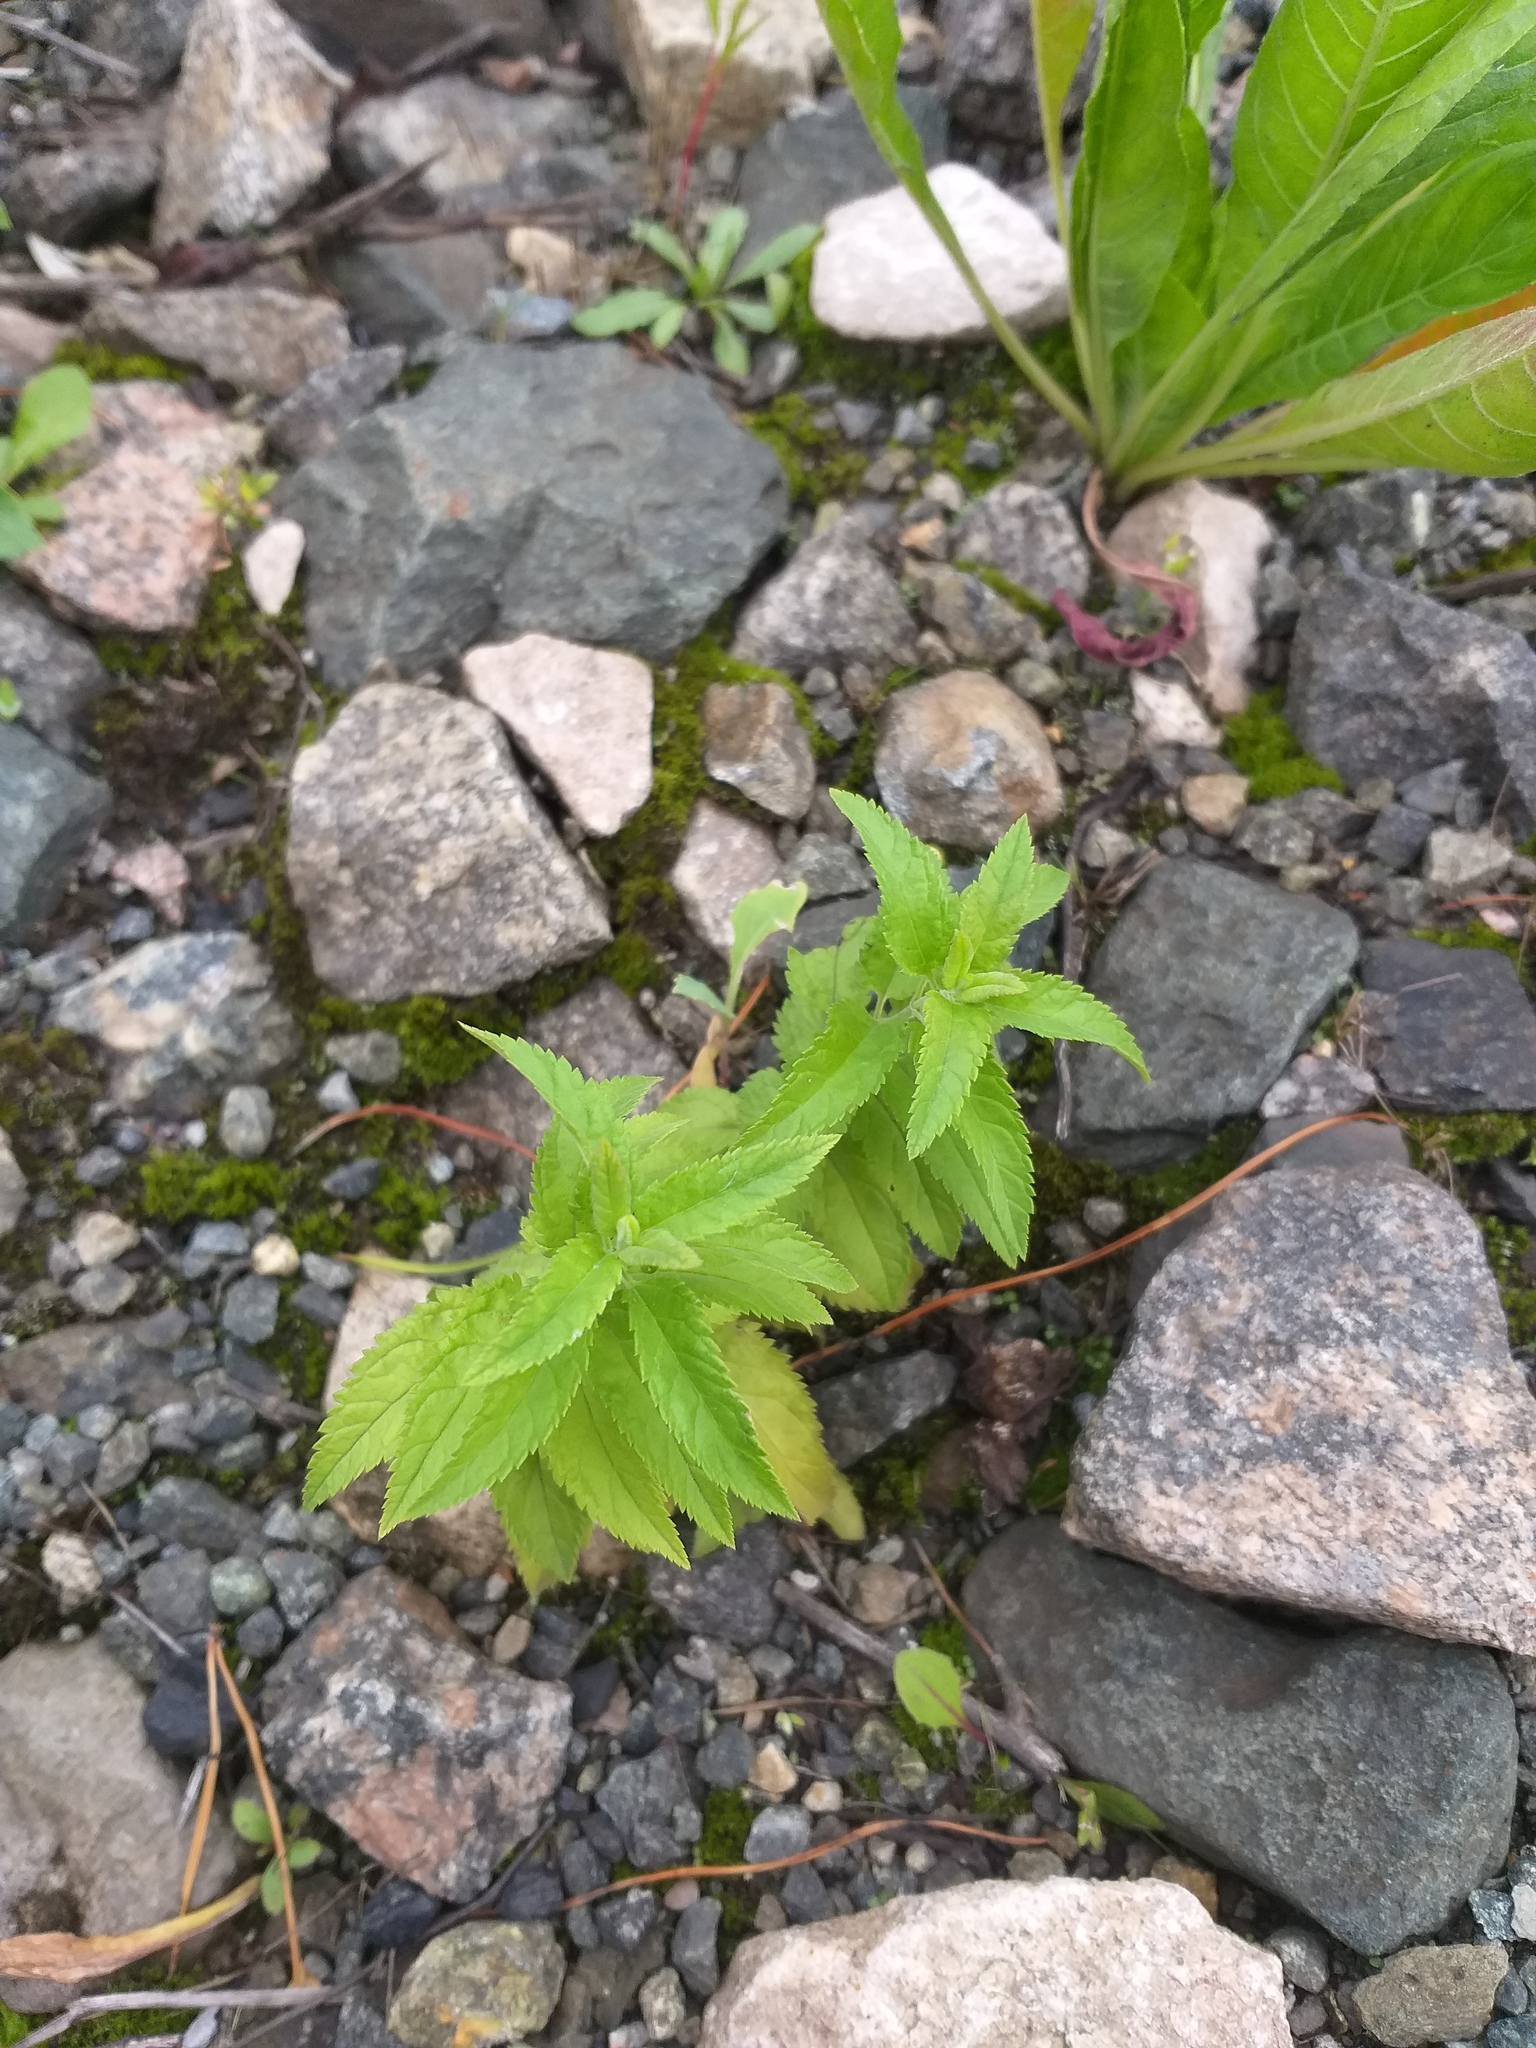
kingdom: Plantae
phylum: Tracheophyta
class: Magnoliopsida
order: Lamiales
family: Plantaginaceae
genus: Veronica
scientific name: Veronica longifolia
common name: Garden speedwell
